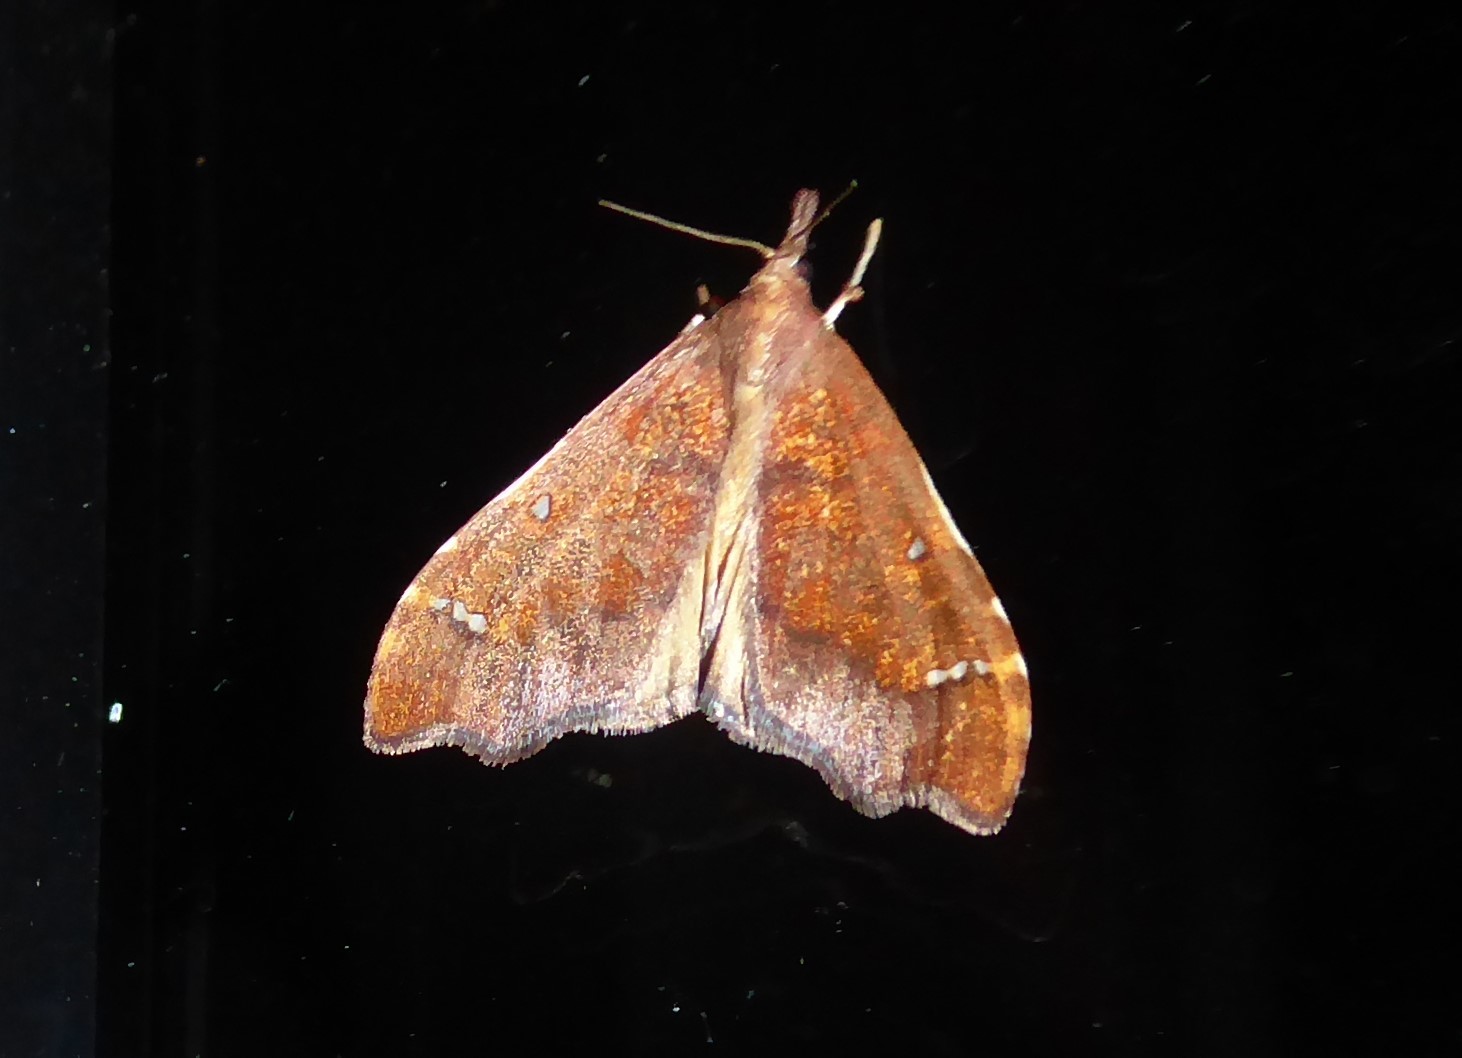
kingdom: Animalia
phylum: Arthropoda
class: Insecta
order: Lepidoptera
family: Crambidae
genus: Deana
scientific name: Deana hybreasalis
